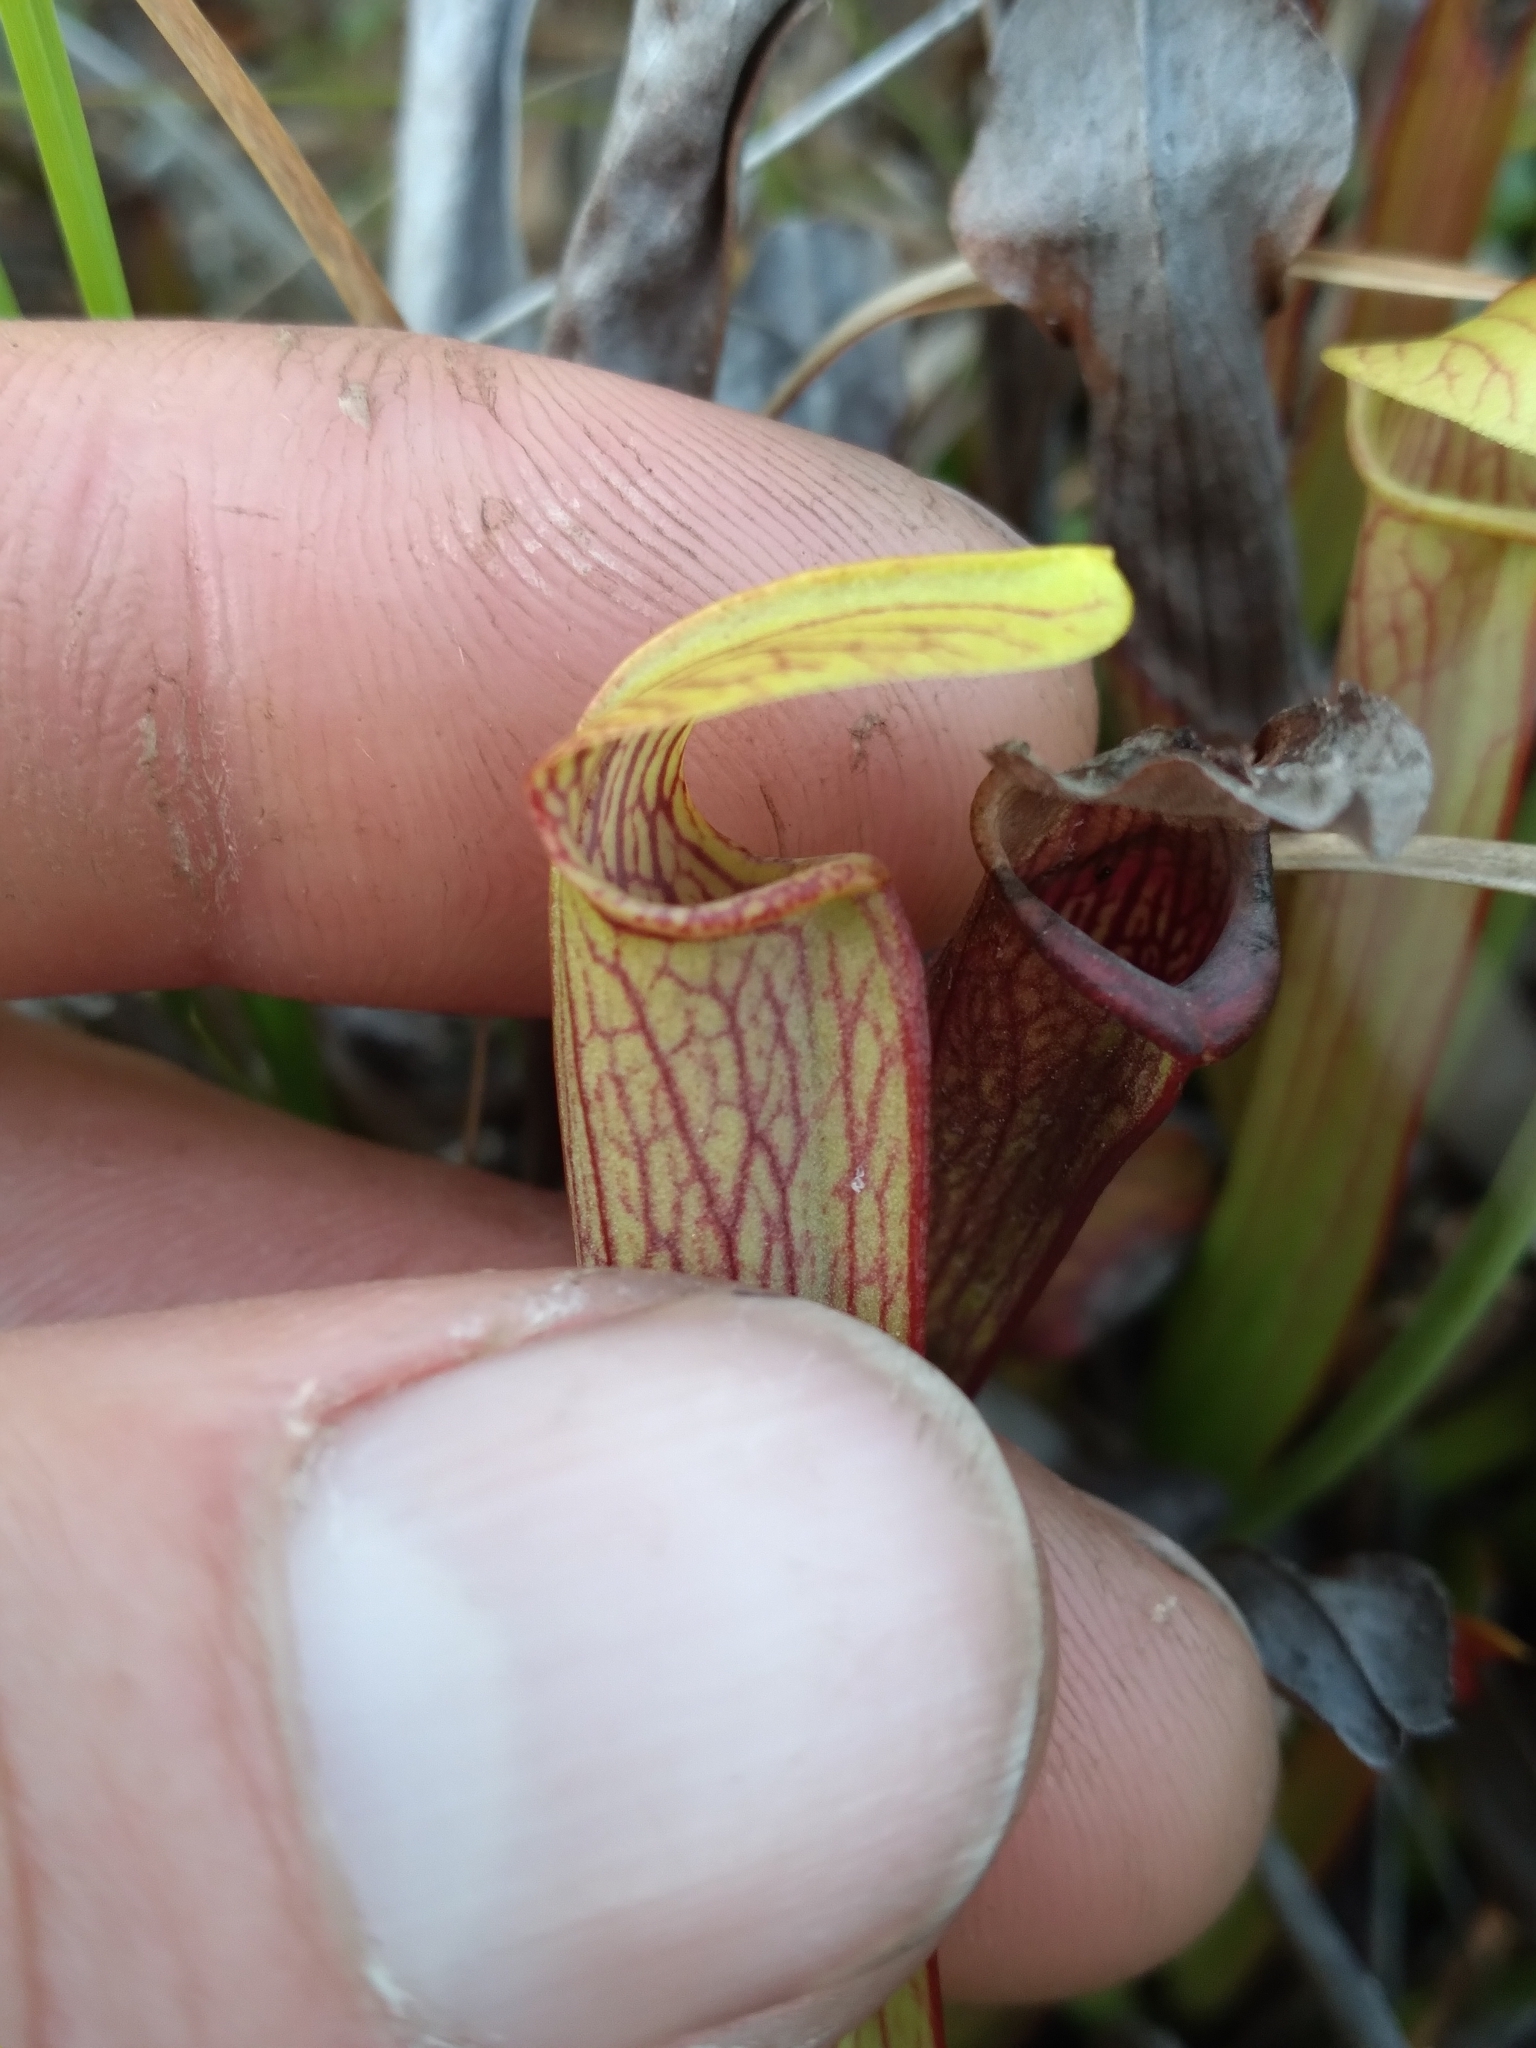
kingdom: Plantae
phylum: Tracheophyta
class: Magnoliopsida
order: Ericales
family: Sarraceniaceae
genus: Sarracenia
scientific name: Sarracenia rubra
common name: Sweet pitcherplant
